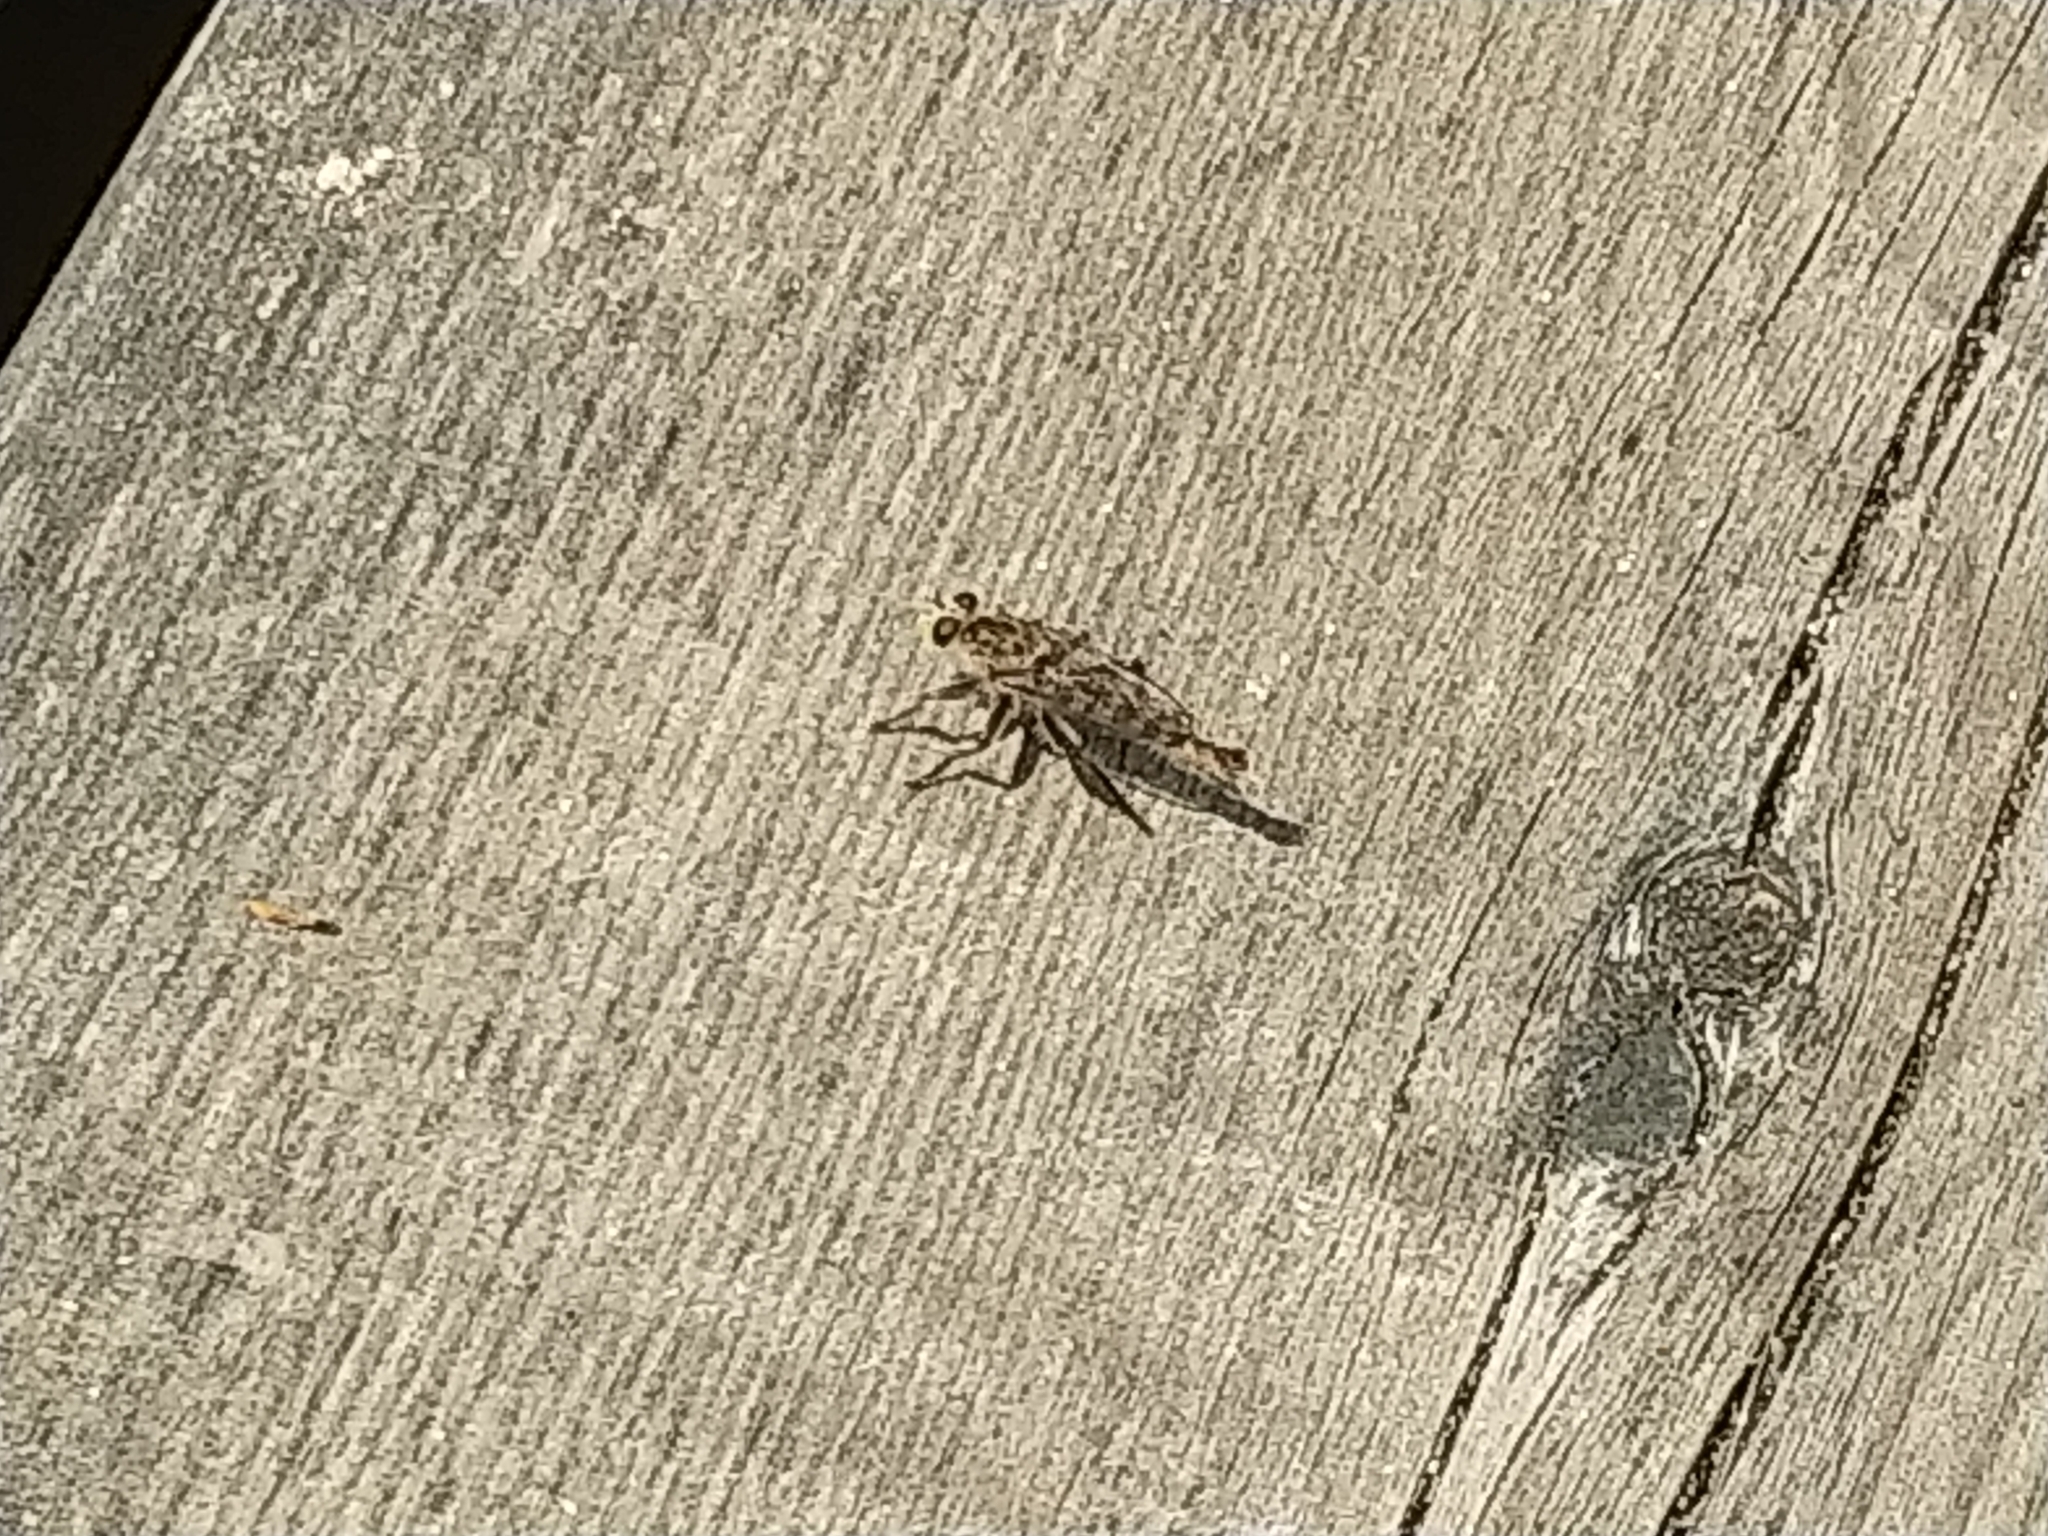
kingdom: Animalia
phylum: Arthropoda
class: Insecta
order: Diptera
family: Asilidae
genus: Proctacanthella
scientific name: Proctacanthella cacopiloga
